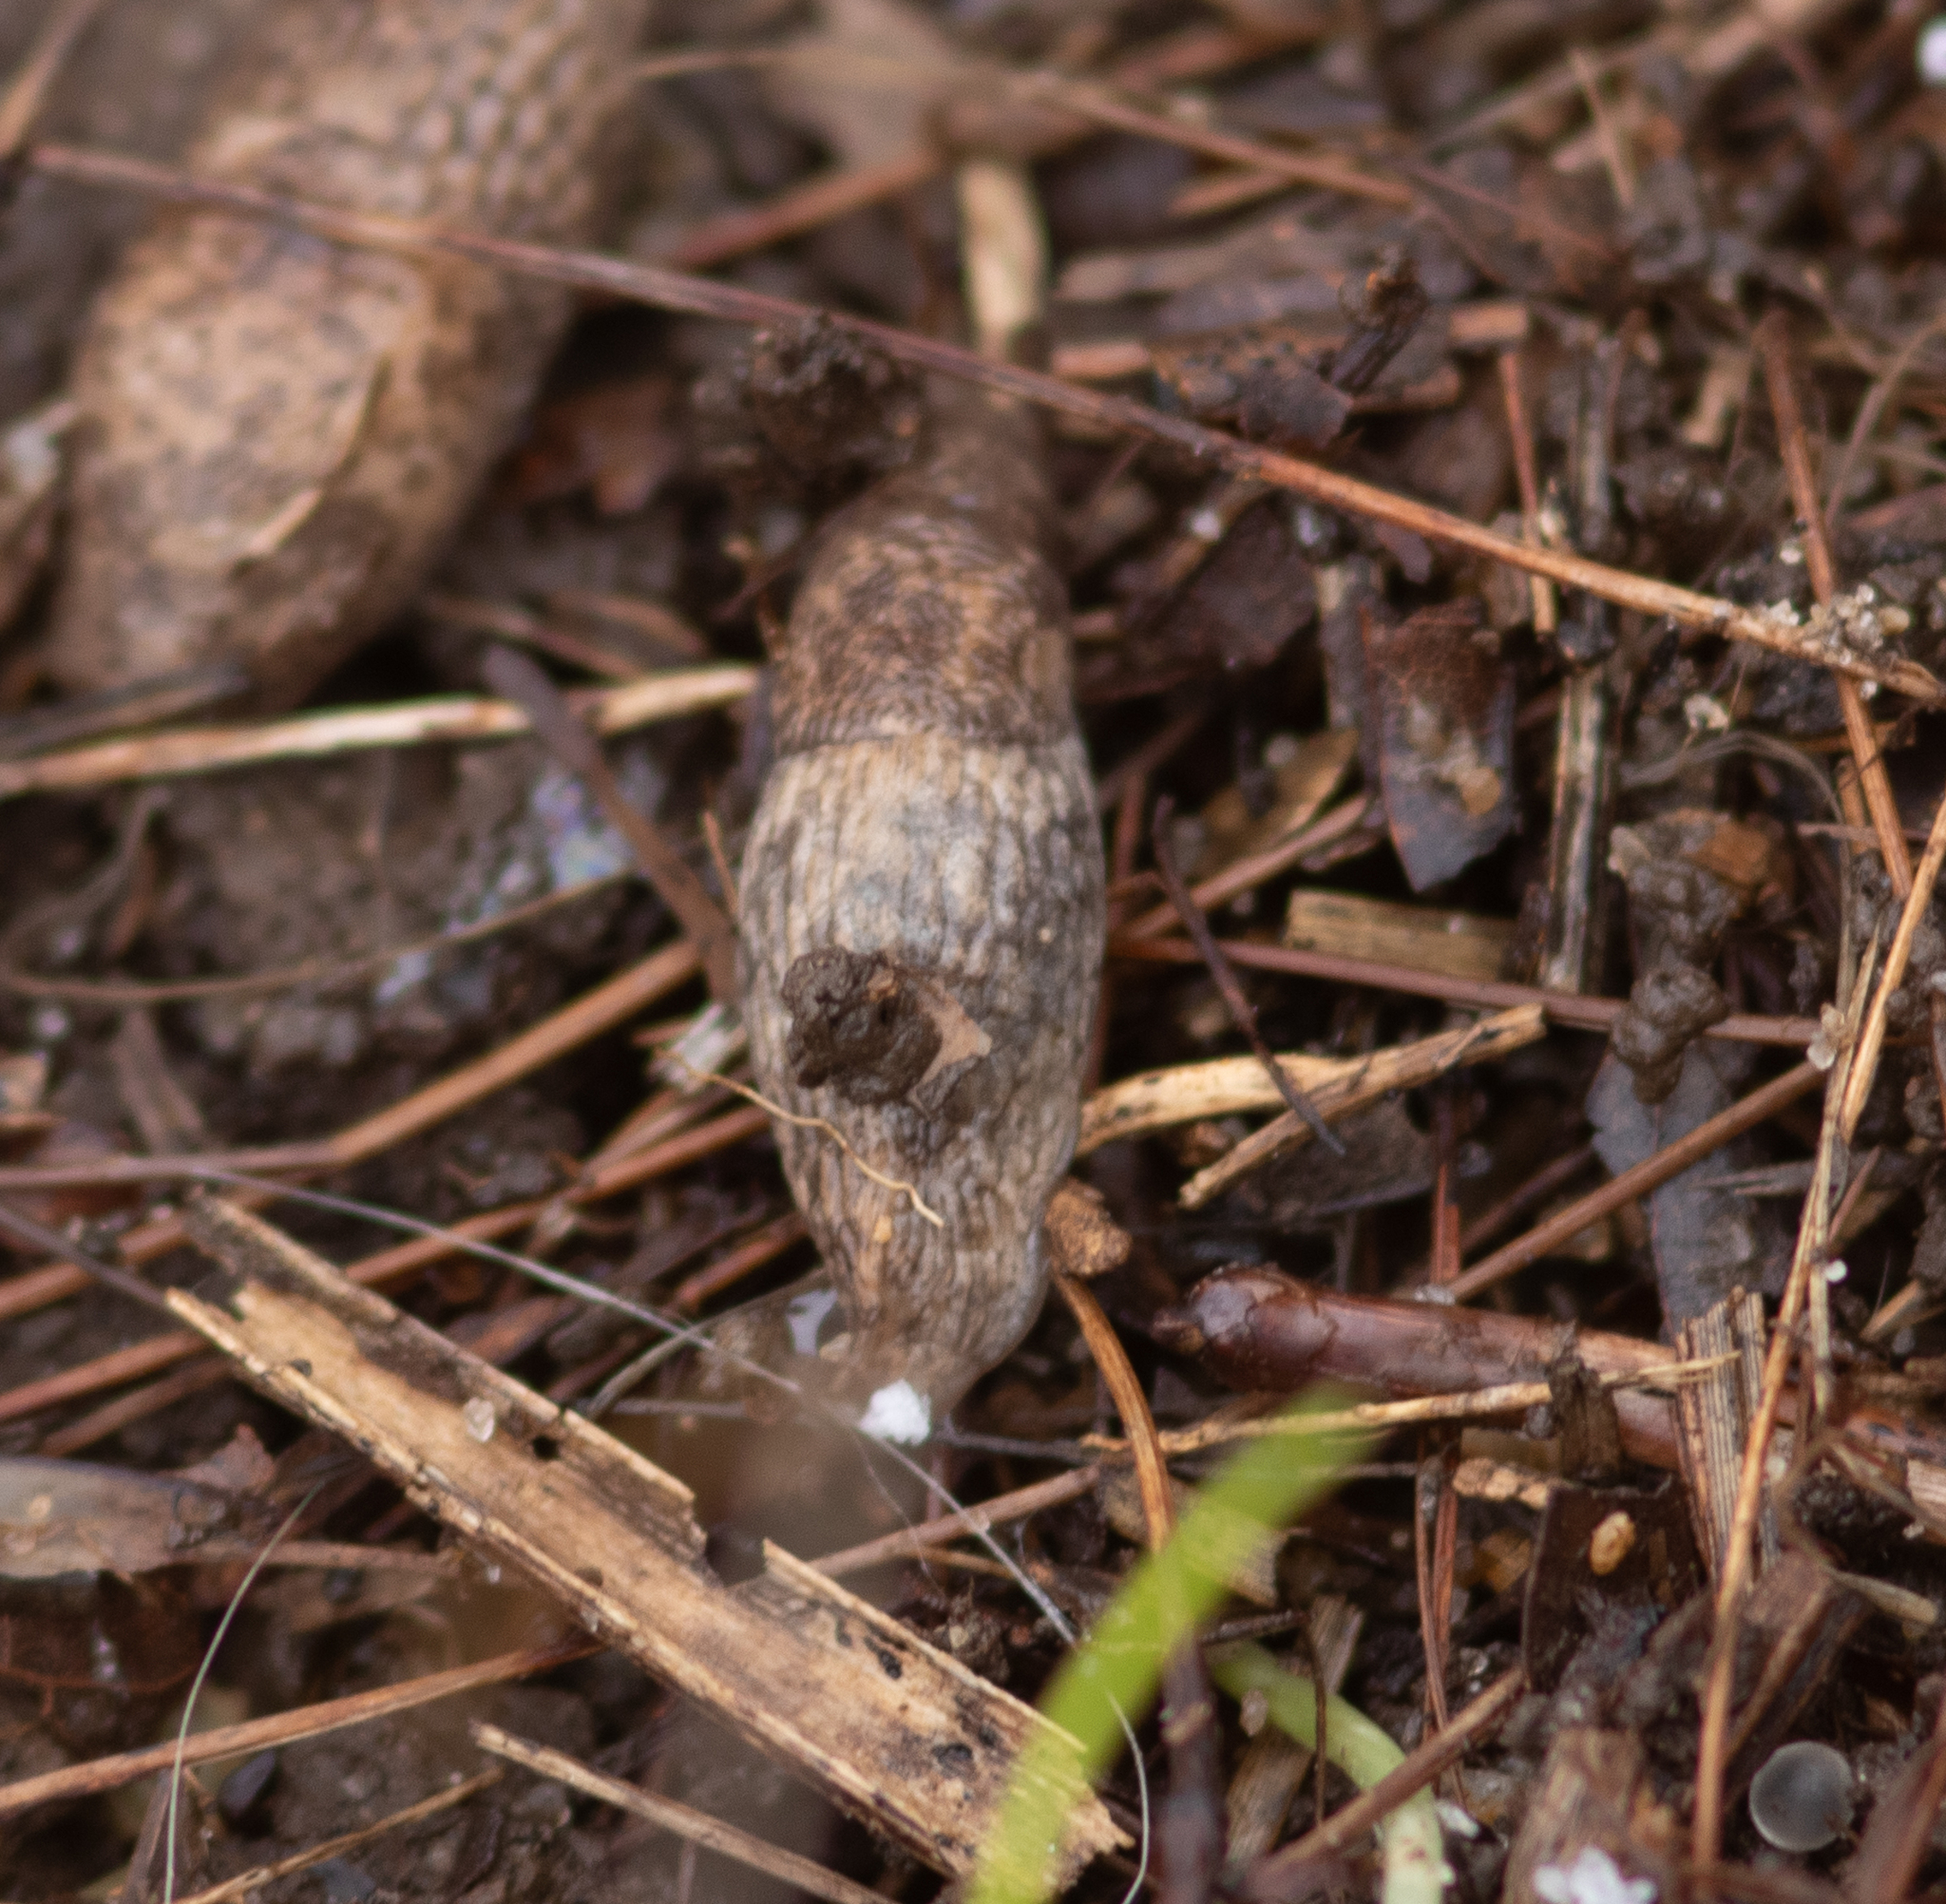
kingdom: Animalia
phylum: Mollusca
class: Gastropoda
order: Stylommatophora
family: Agriolimacidae
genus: Deroceras
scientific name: Deroceras reticulatum
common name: Gray field slug
